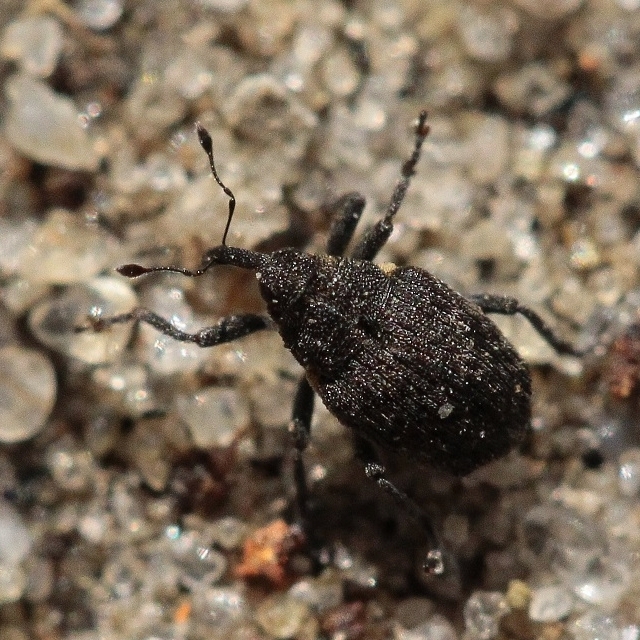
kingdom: Animalia
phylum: Arthropoda
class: Insecta
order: Coleoptera
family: Curculionidae
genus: Ranunculiphilus
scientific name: Ranunculiphilus faeculentus
